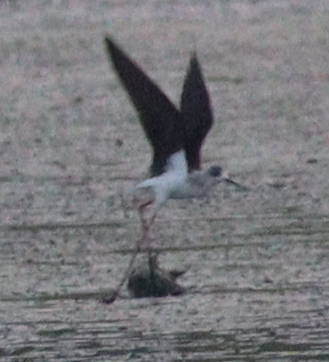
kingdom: Animalia
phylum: Chordata
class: Aves
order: Charadriiformes
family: Recurvirostridae
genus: Himantopus
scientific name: Himantopus himantopus
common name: Black-winged stilt
